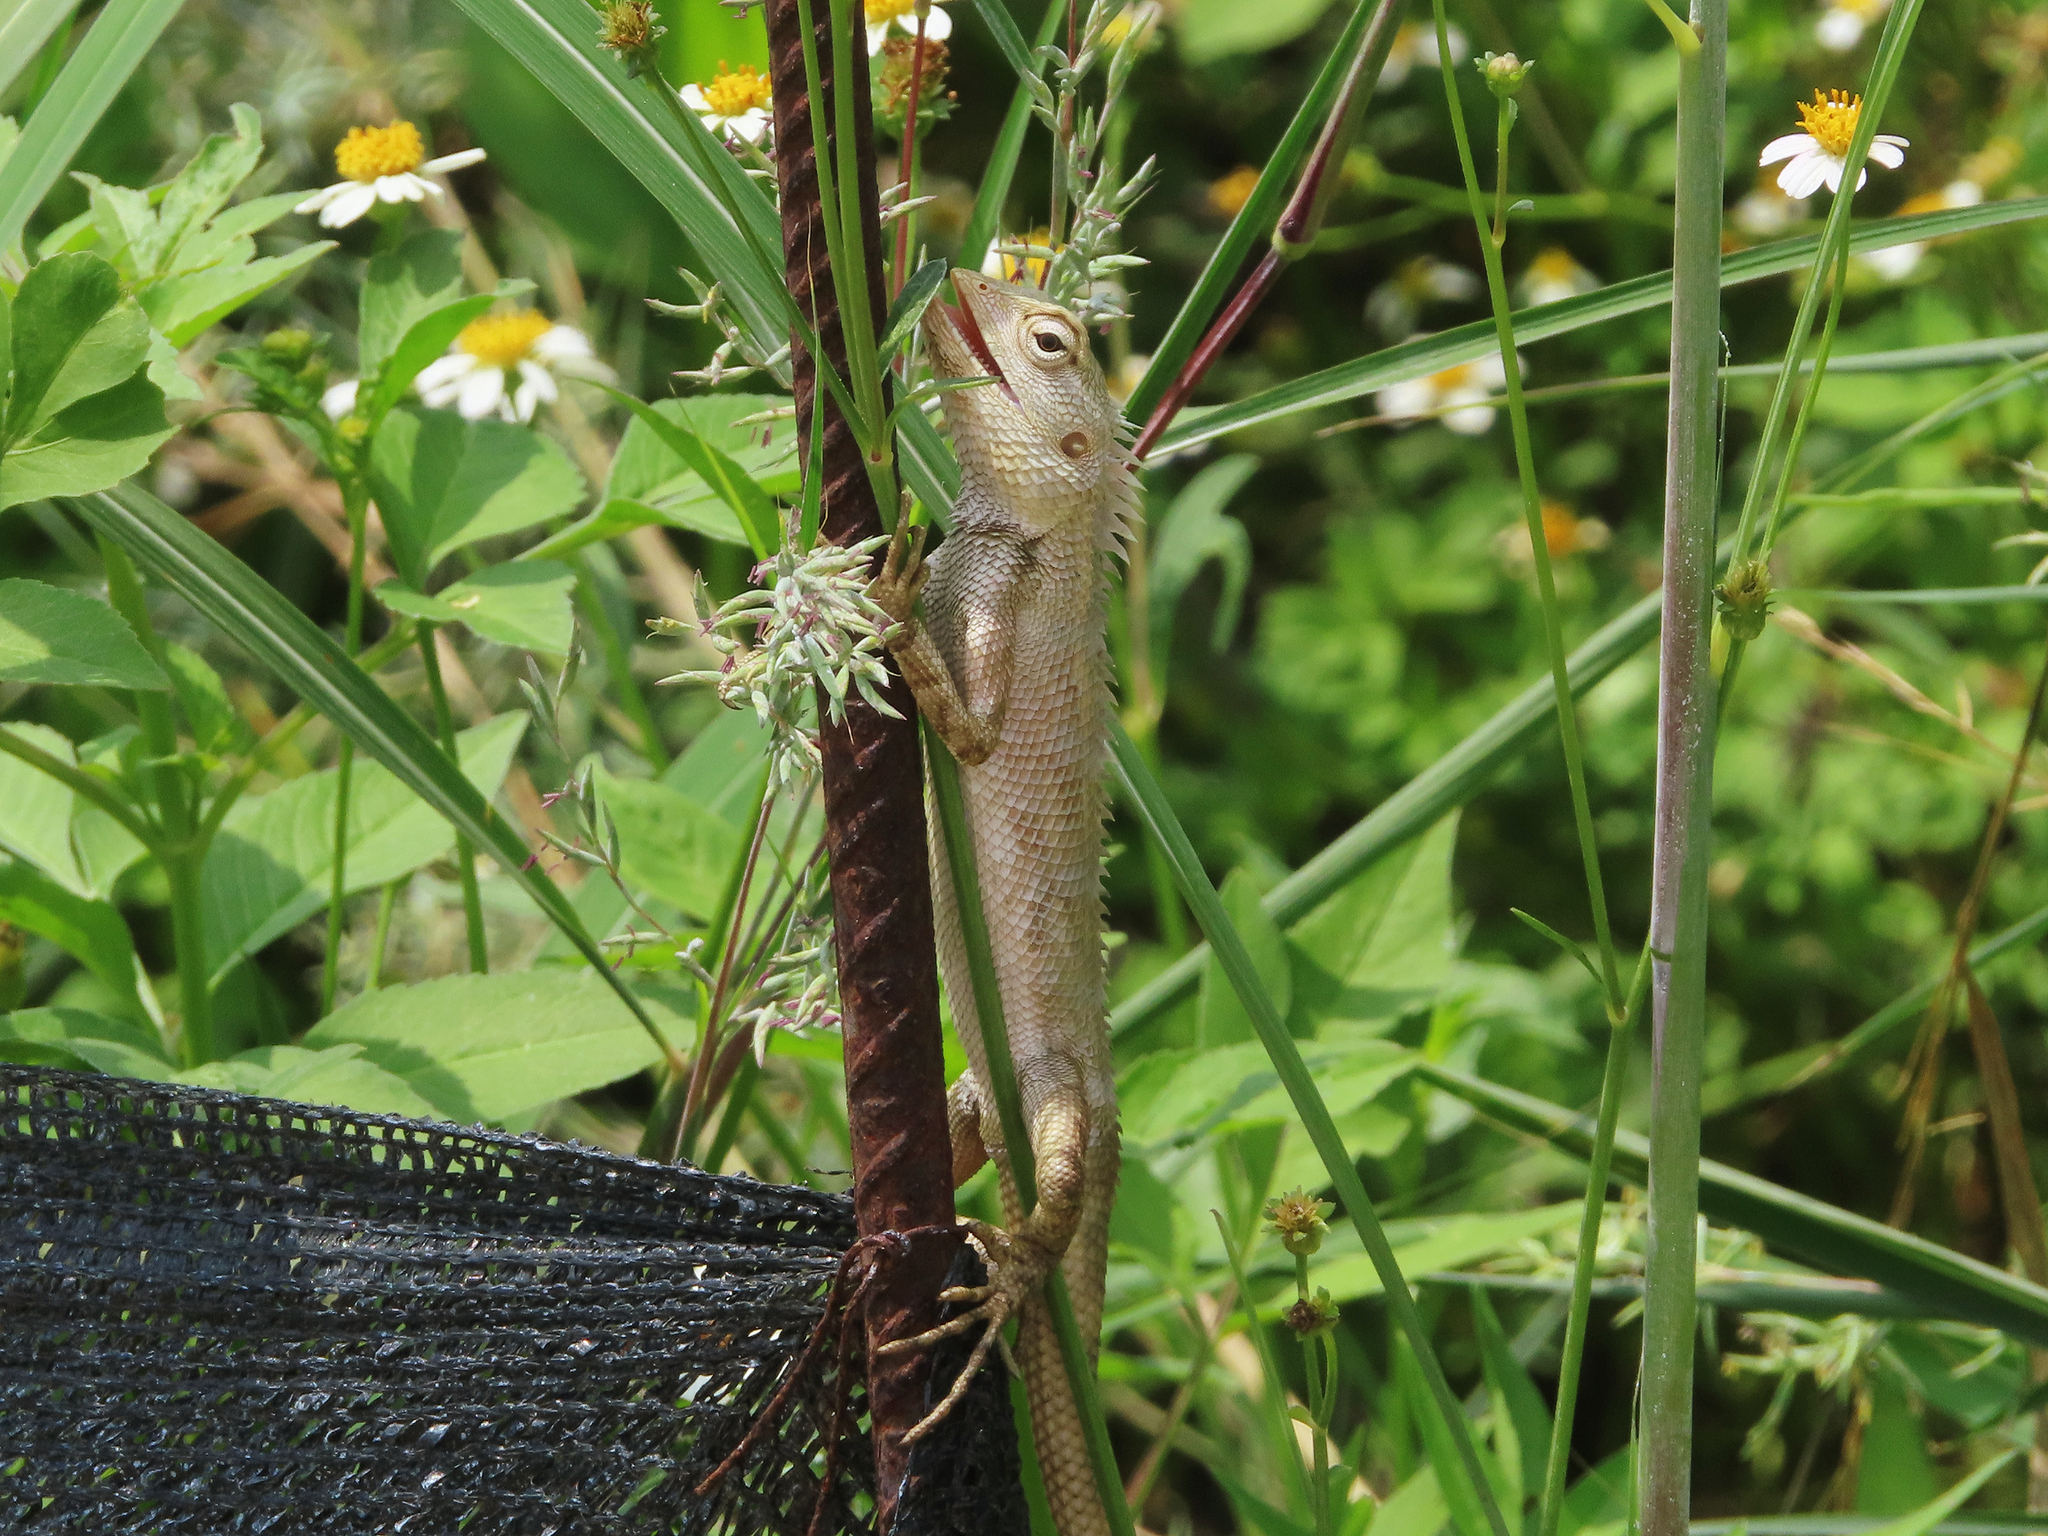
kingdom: Animalia
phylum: Chordata
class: Squamata
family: Agamidae
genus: Calotes
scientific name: Calotes versicolor
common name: Oriental garden lizard
